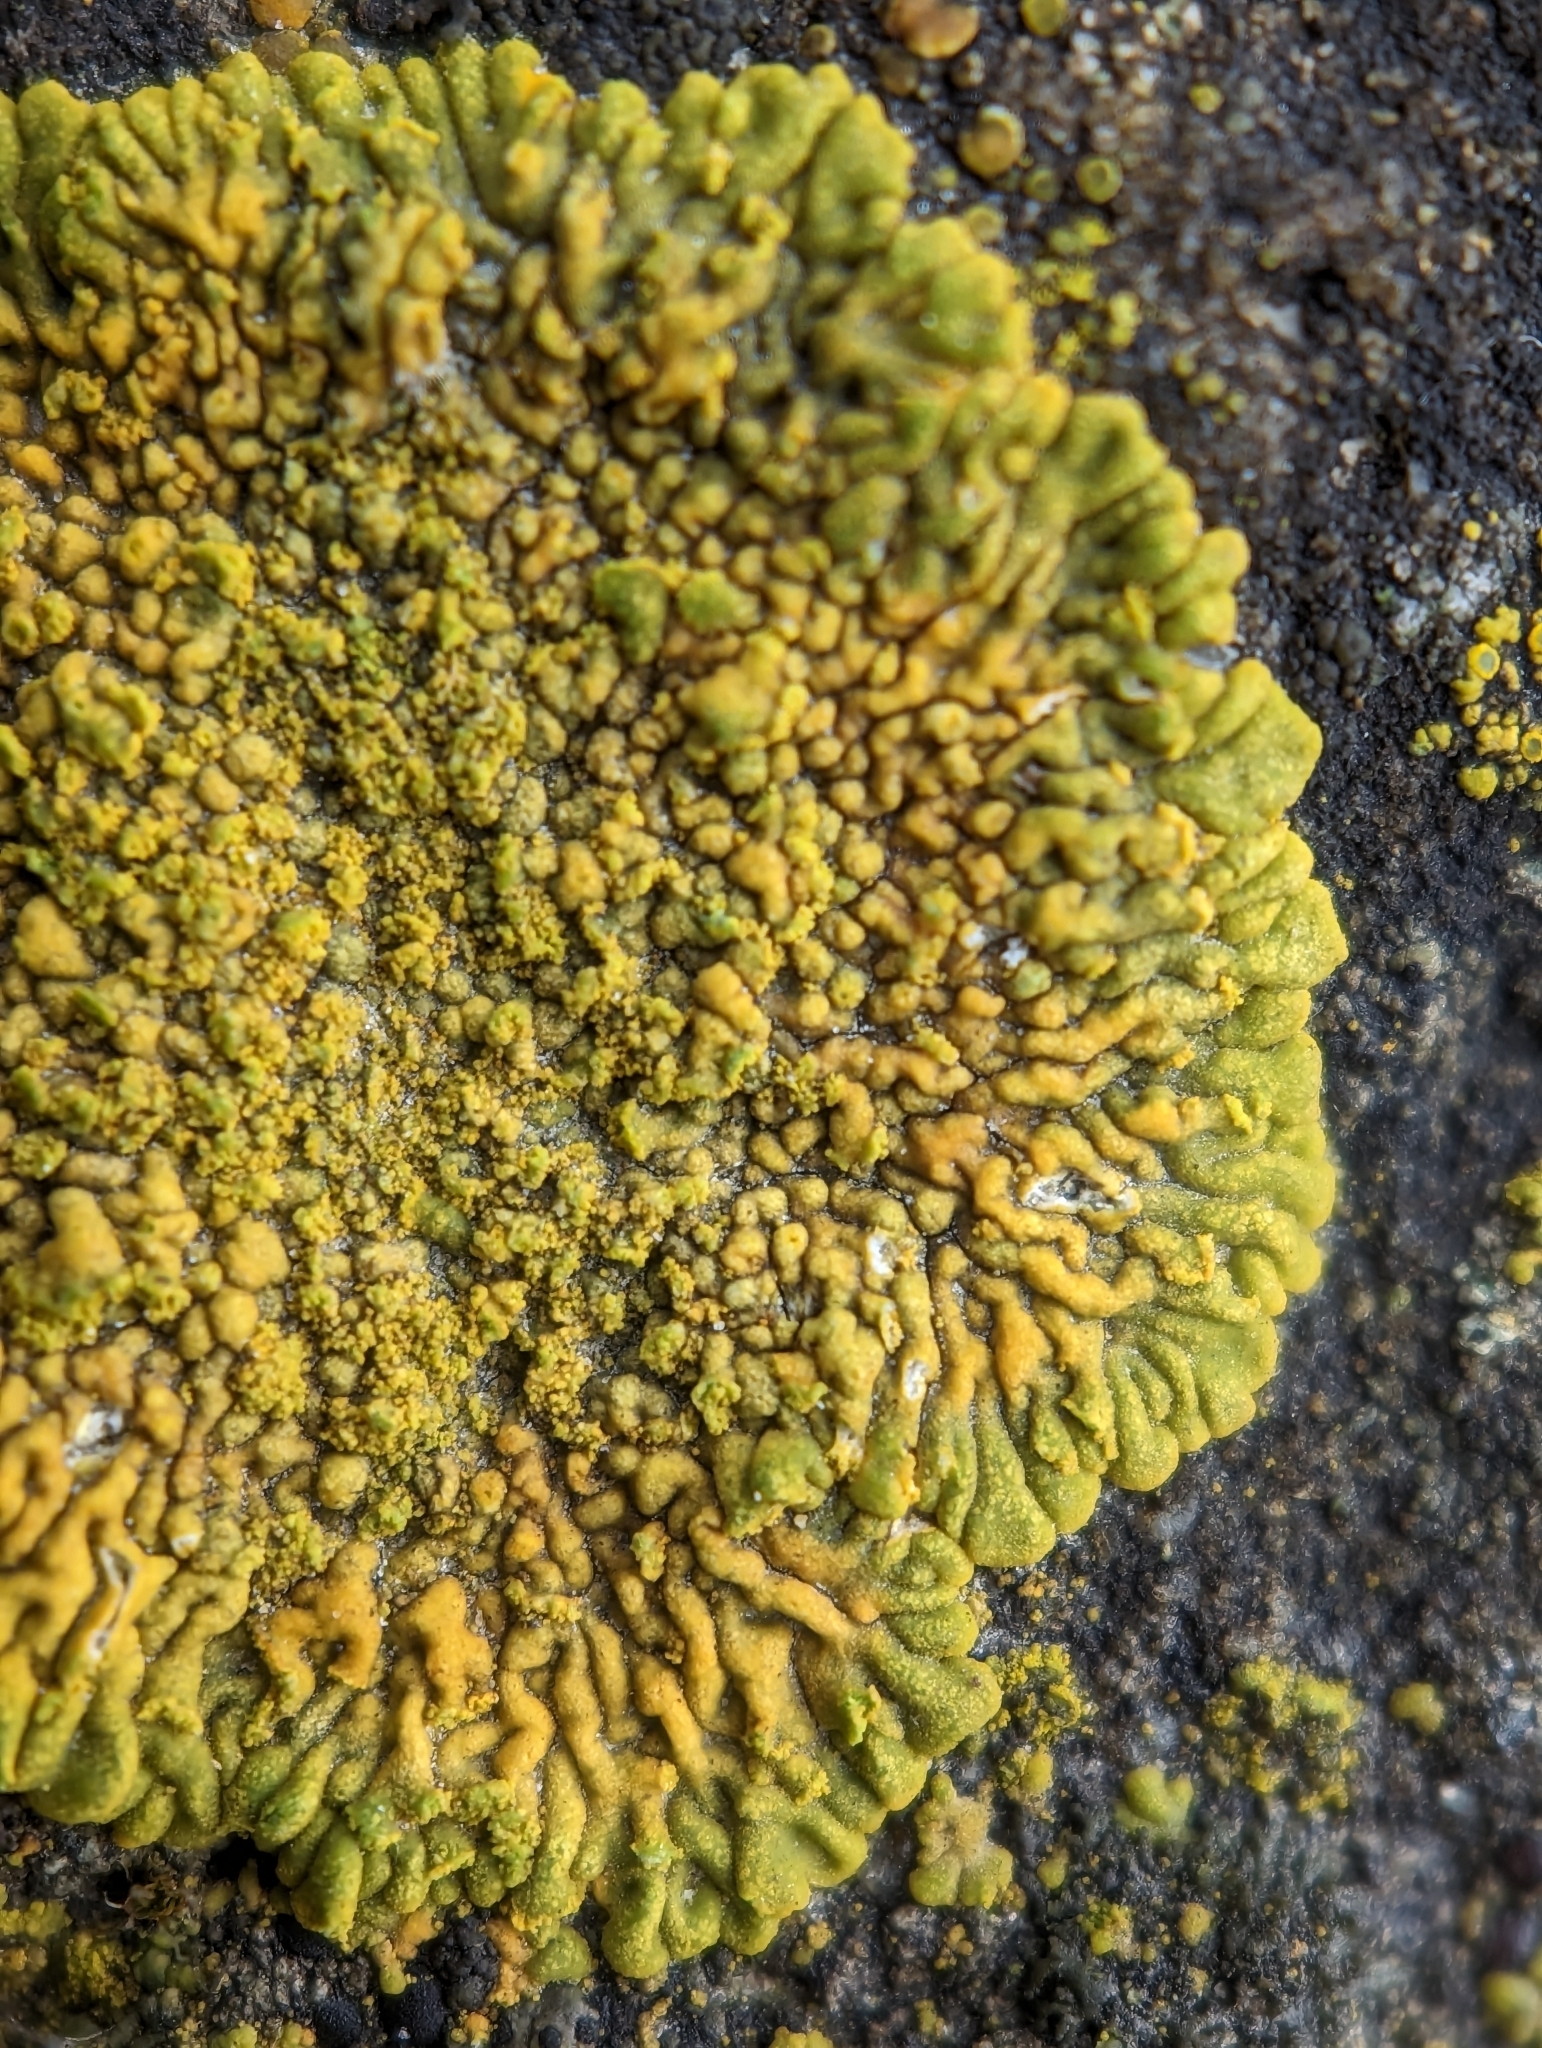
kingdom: Fungi
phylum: Ascomycota
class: Lecanoromycetes
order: Teloschistales
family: Teloschistaceae
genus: Calogaya
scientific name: Calogaya decipiens
